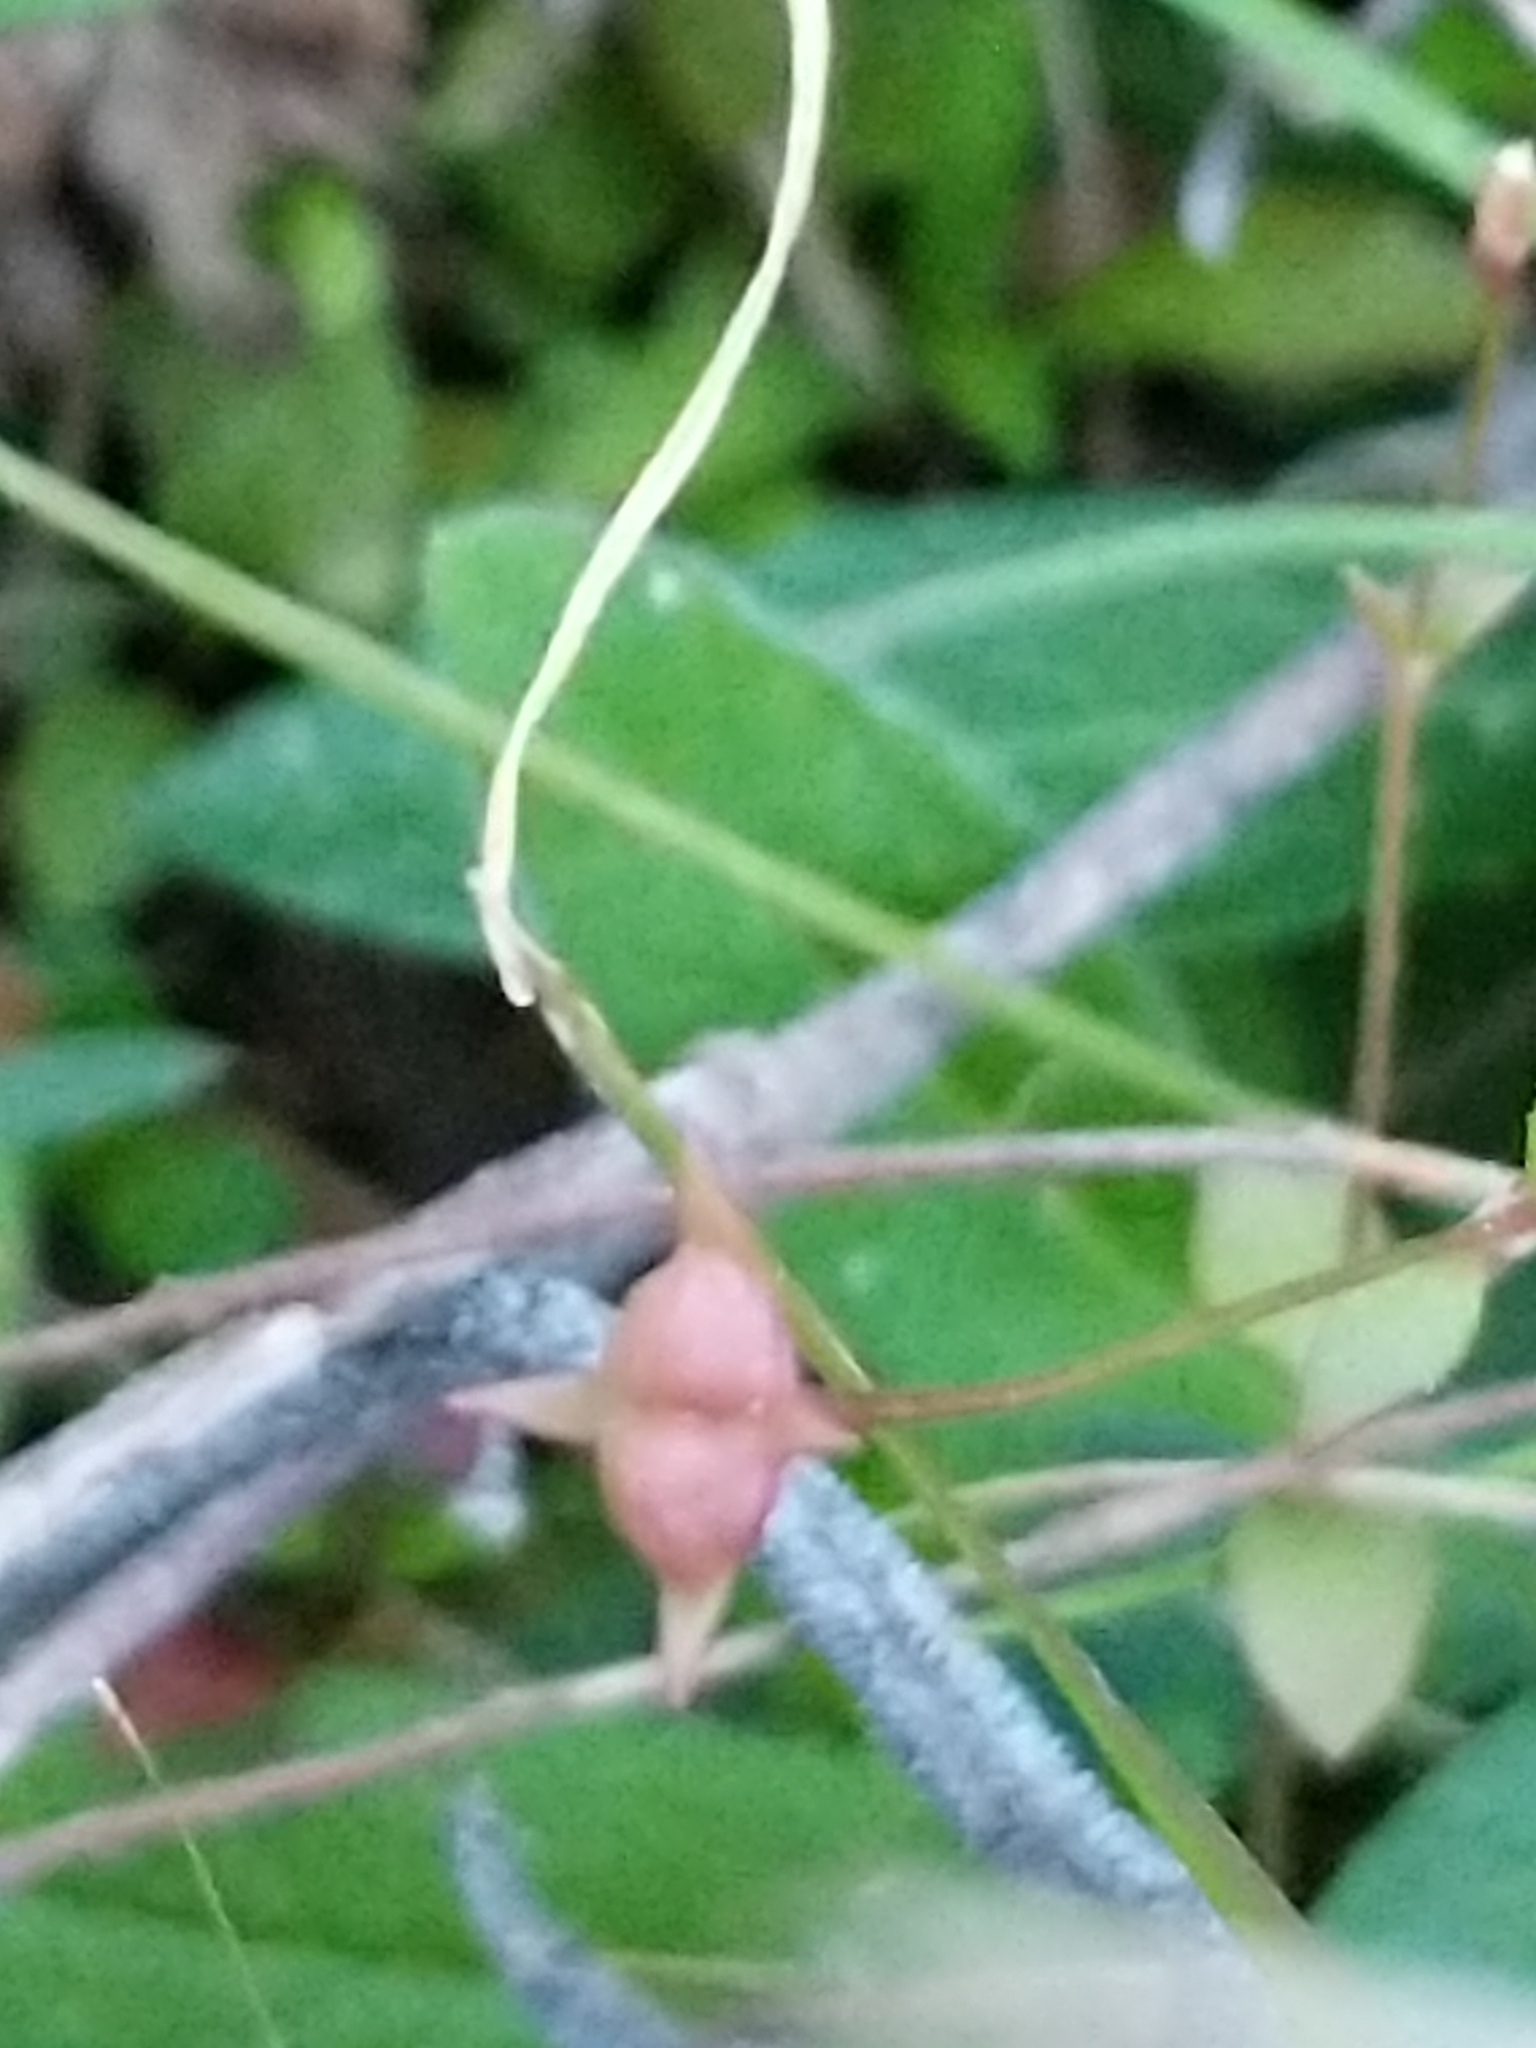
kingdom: Plantae
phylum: Tracheophyta
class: Magnoliopsida
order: Gentianales
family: Rubiaceae
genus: Houstonia
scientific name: Houstonia pusilla
